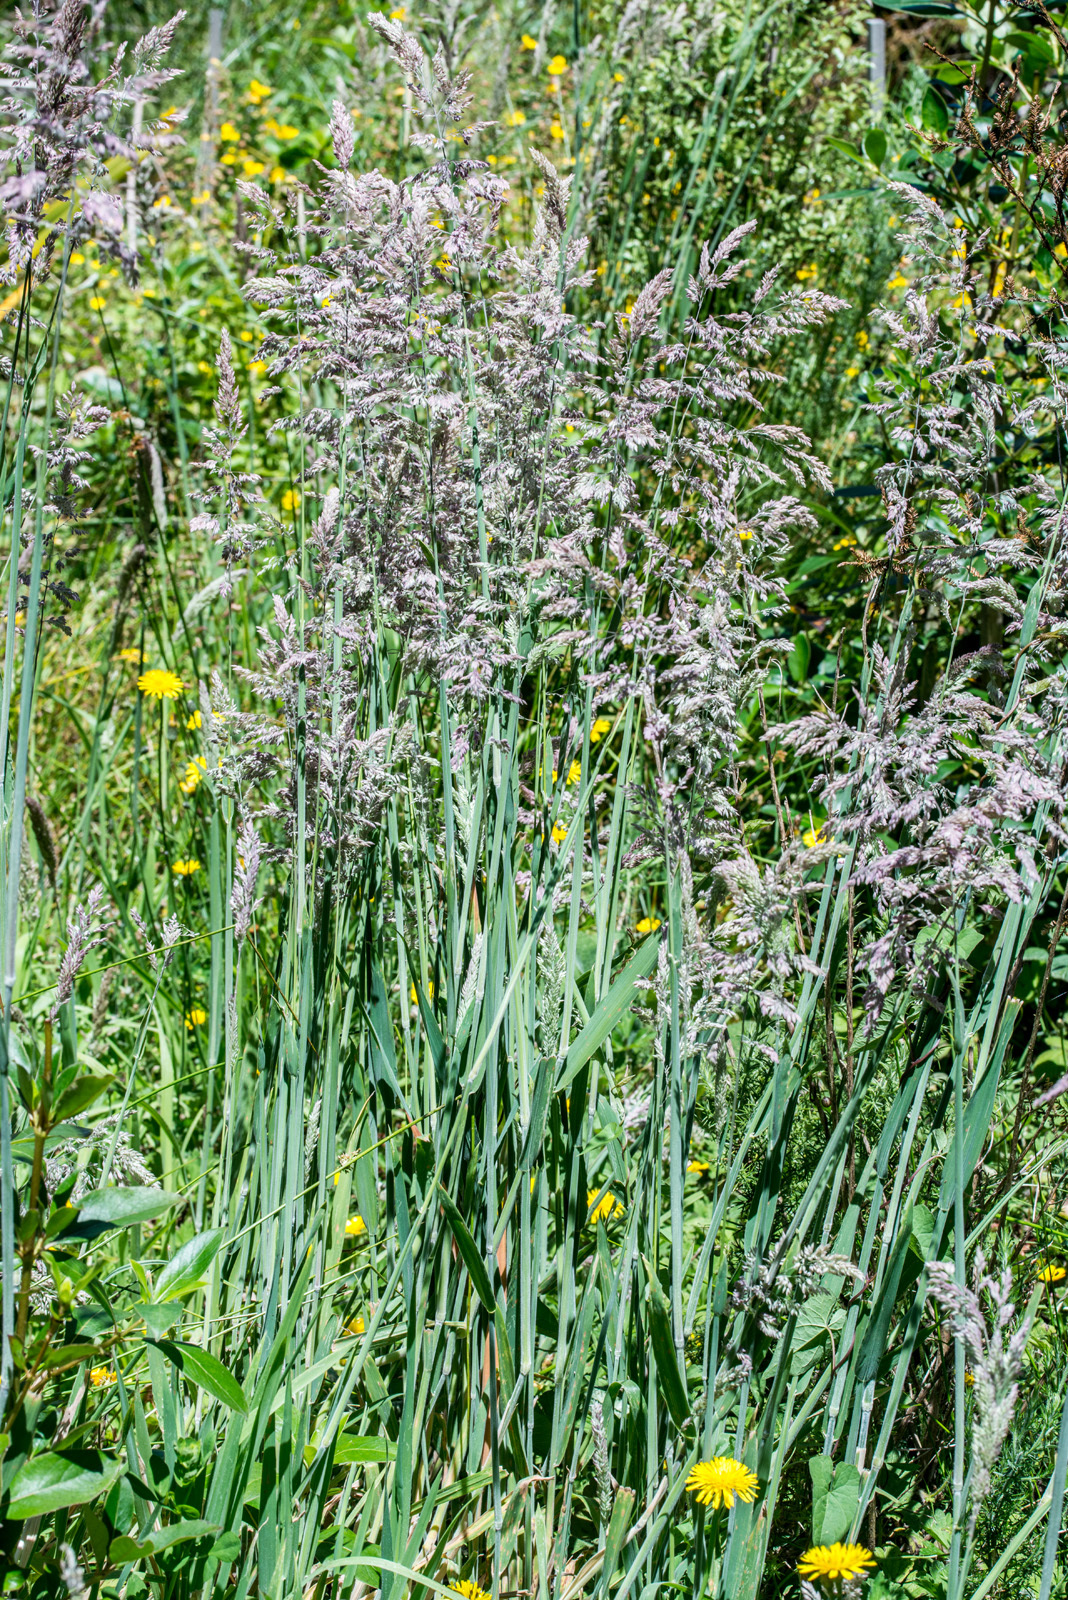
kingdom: Plantae
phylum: Tracheophyta
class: Liliopsida
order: Poales
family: Poaceae
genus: Holcus
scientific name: Holcus lanatus
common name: Yorkshire-fog
